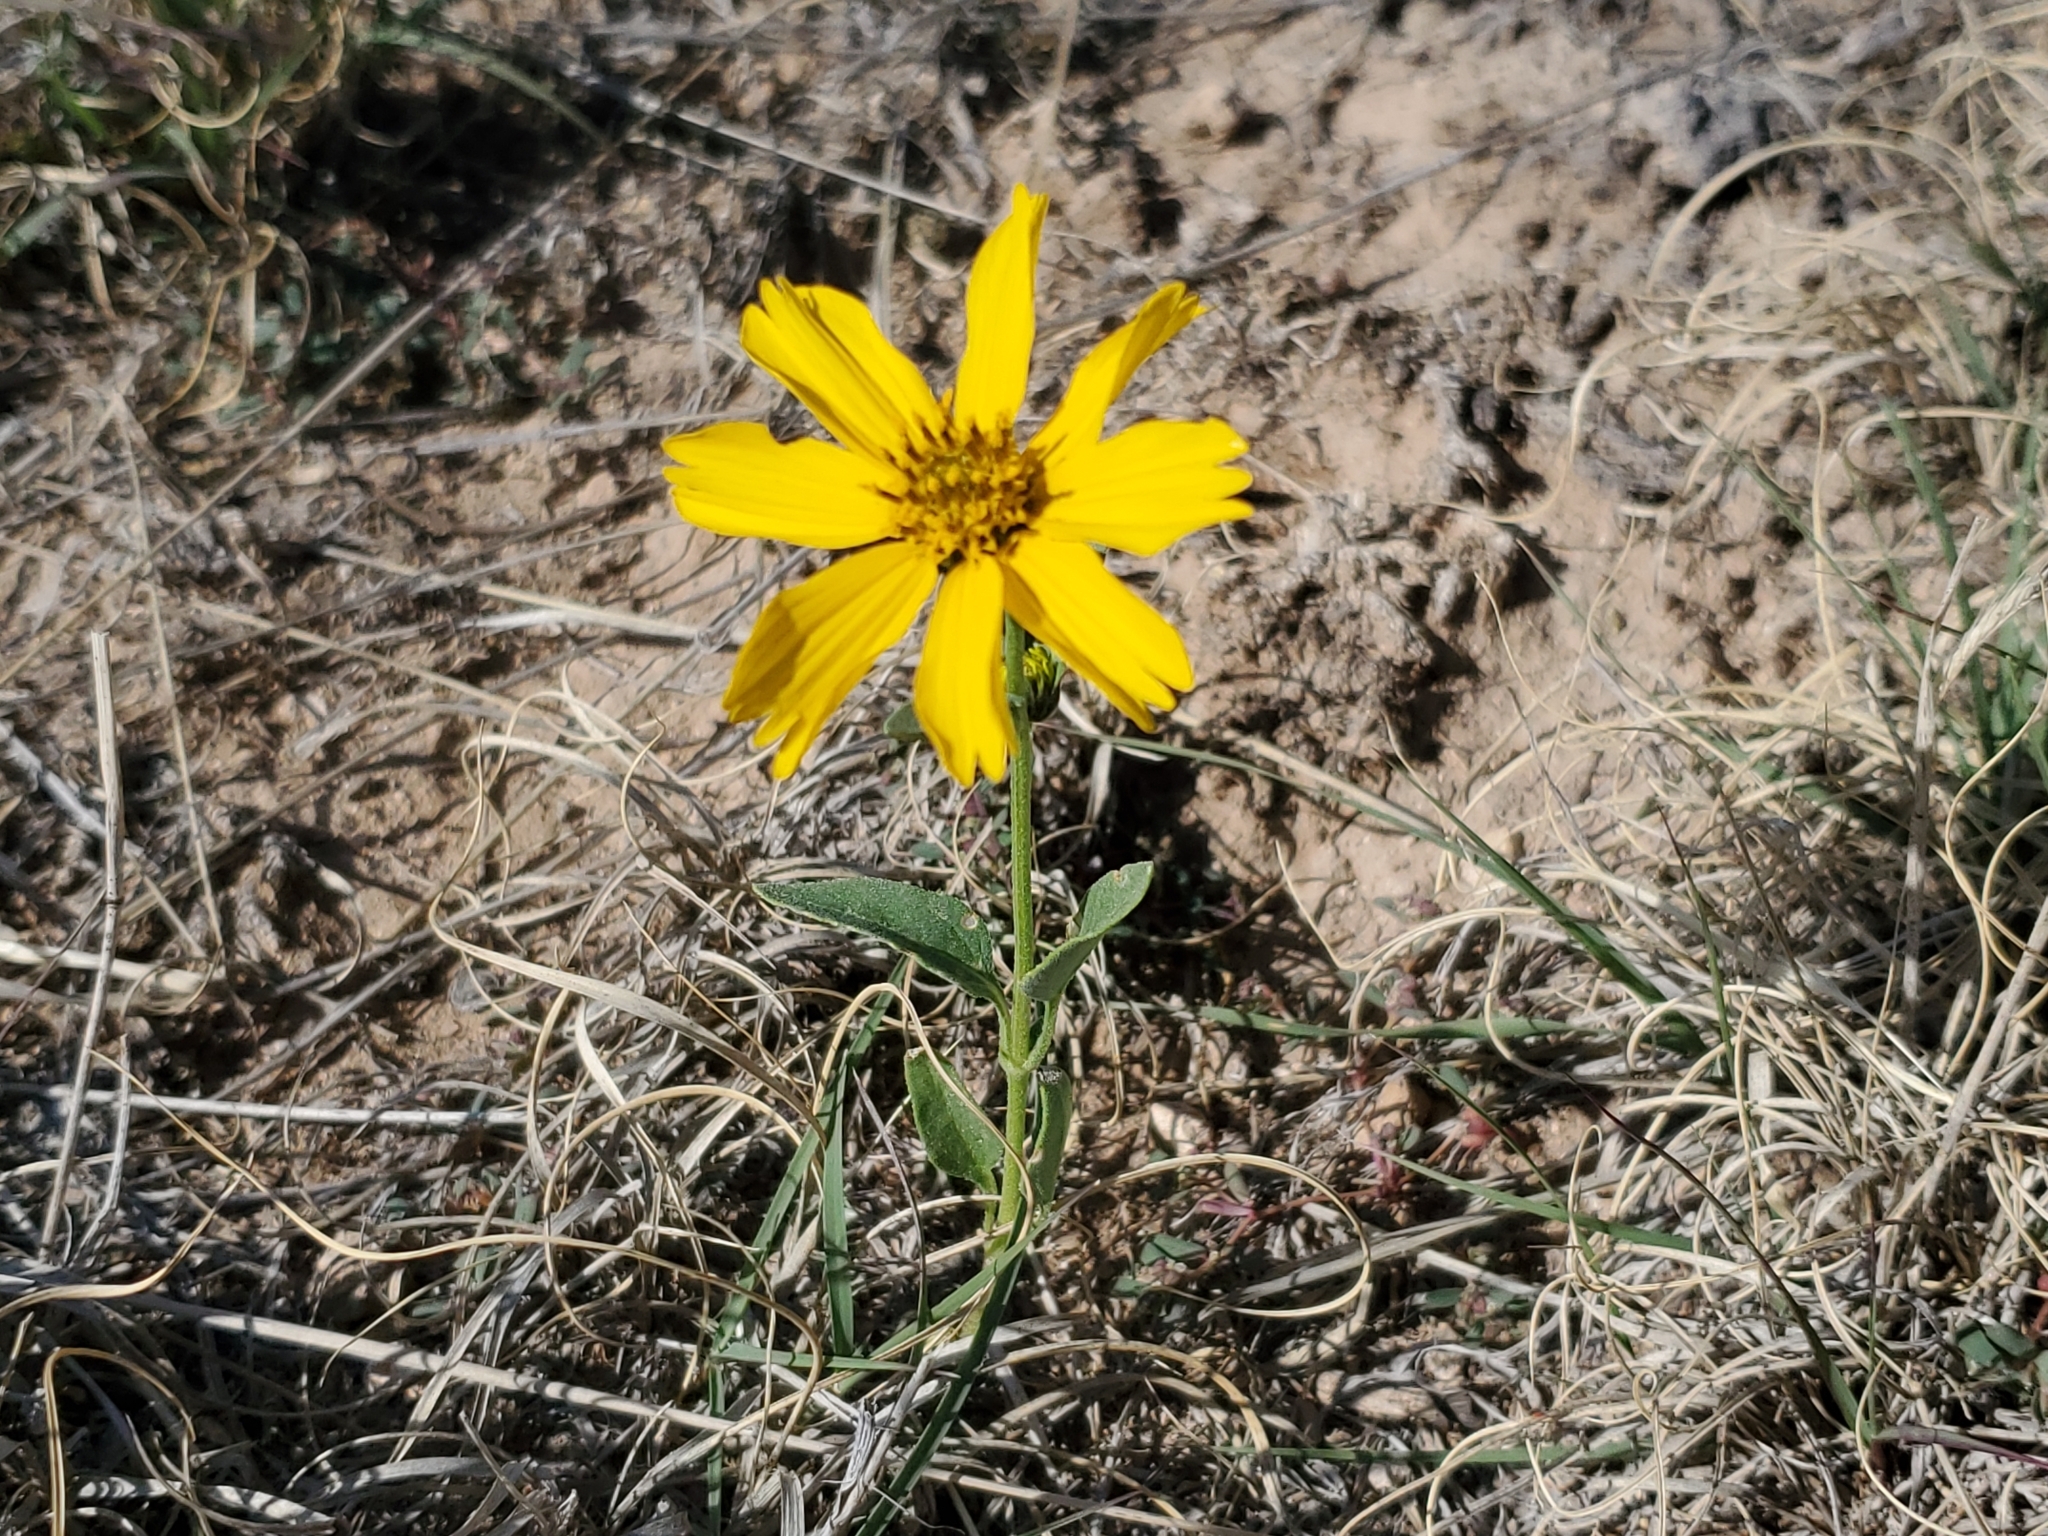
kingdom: Plantae
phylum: Tracheophyta
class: Magnoliopsida
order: Asterales
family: Asteraceae
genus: Verbesina
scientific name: Verbesina encelioides
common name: Golden crownbeard
